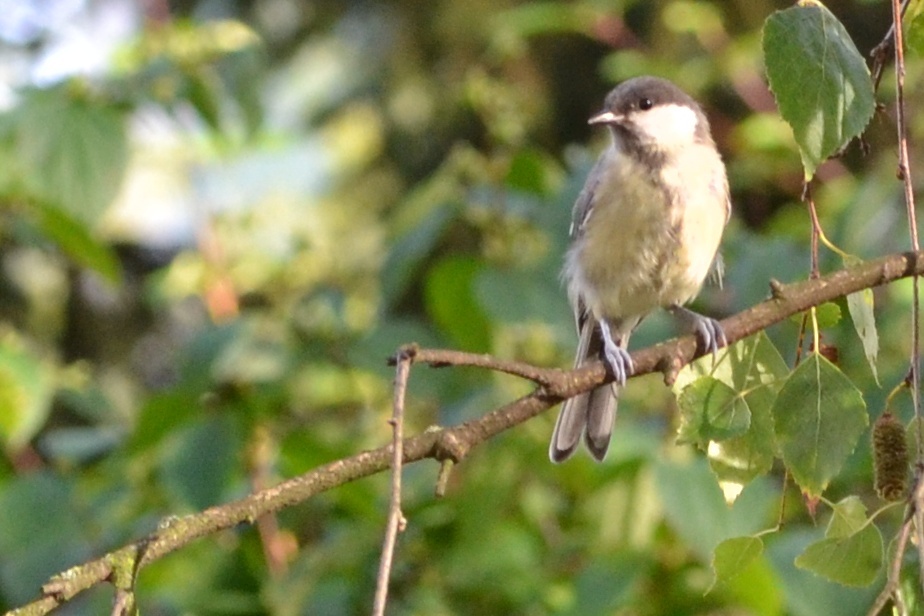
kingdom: Animalia
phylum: Chordata
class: Aves
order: Passeriformes
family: Paridae
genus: Parus
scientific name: Parus major
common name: Great tit
